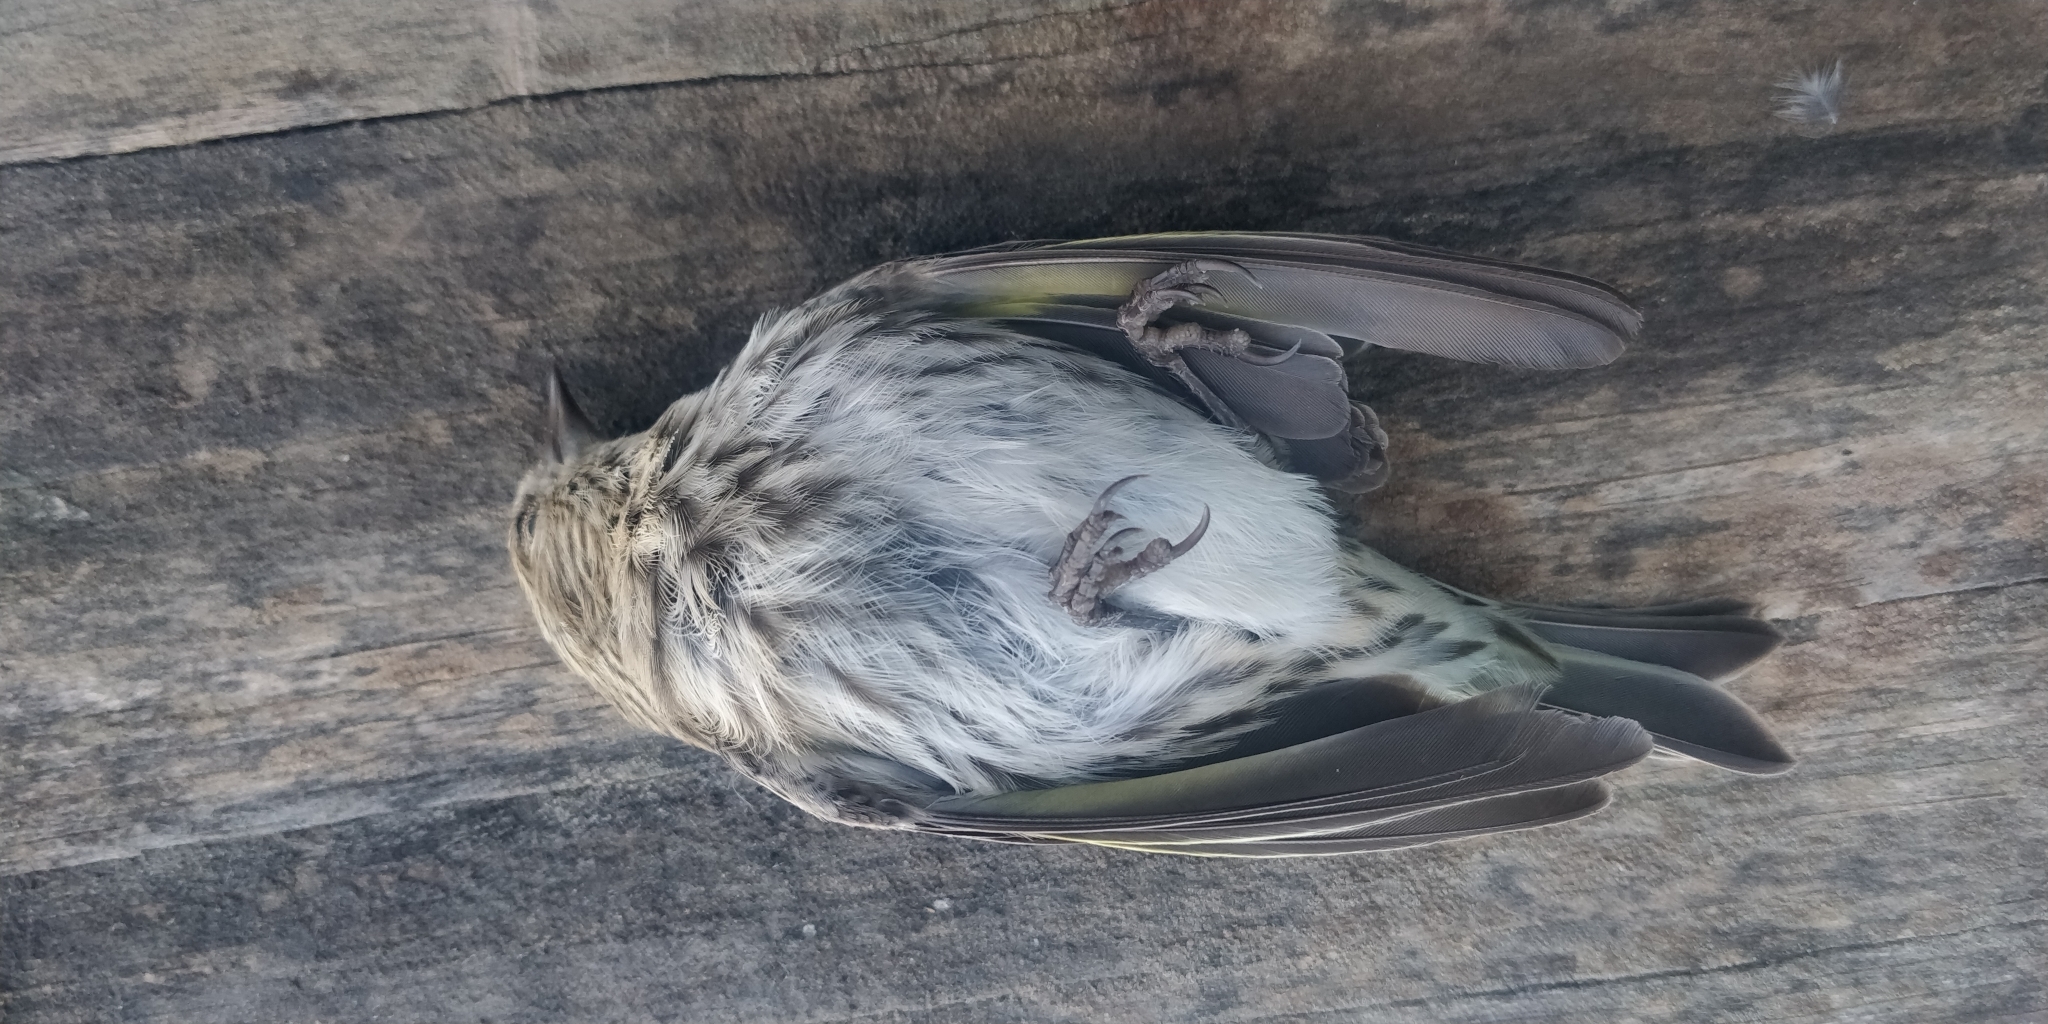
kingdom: Animalia
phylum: Chordata
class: Aves
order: Passeriformes
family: Fringillidae
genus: Spinus
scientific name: Spinus pinus
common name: Pine siskin
